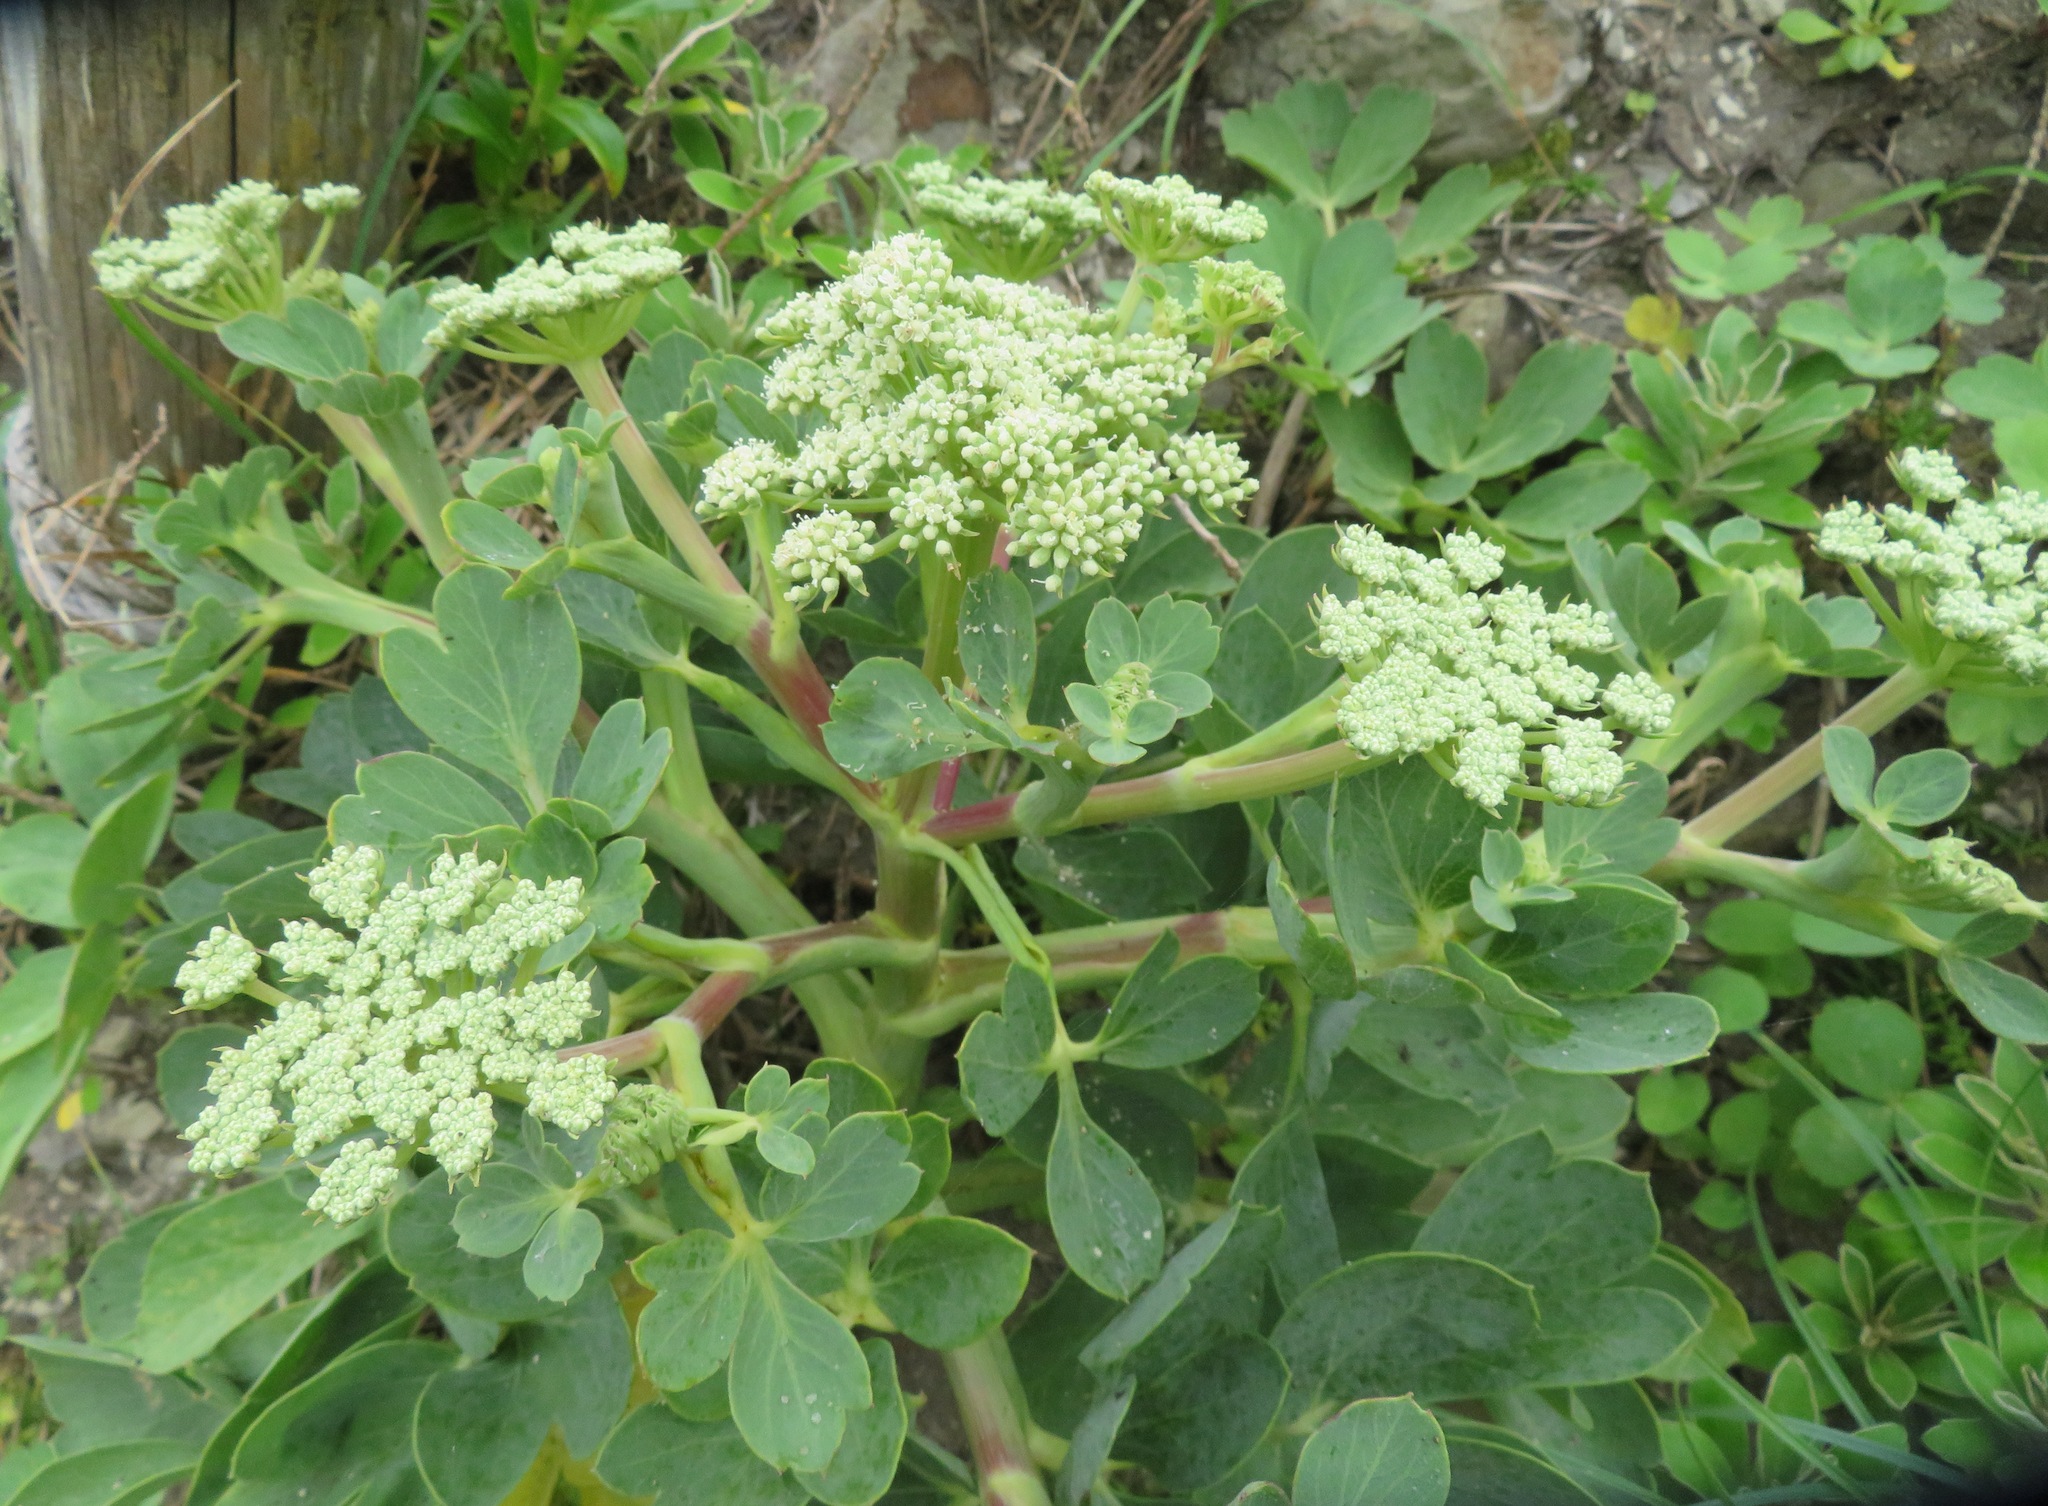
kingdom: Plantae
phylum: Tracheophyta
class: Magnoliopsida
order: Apiales
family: Apiaceae
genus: Peucedanum
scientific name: Peucedanum japonicum
